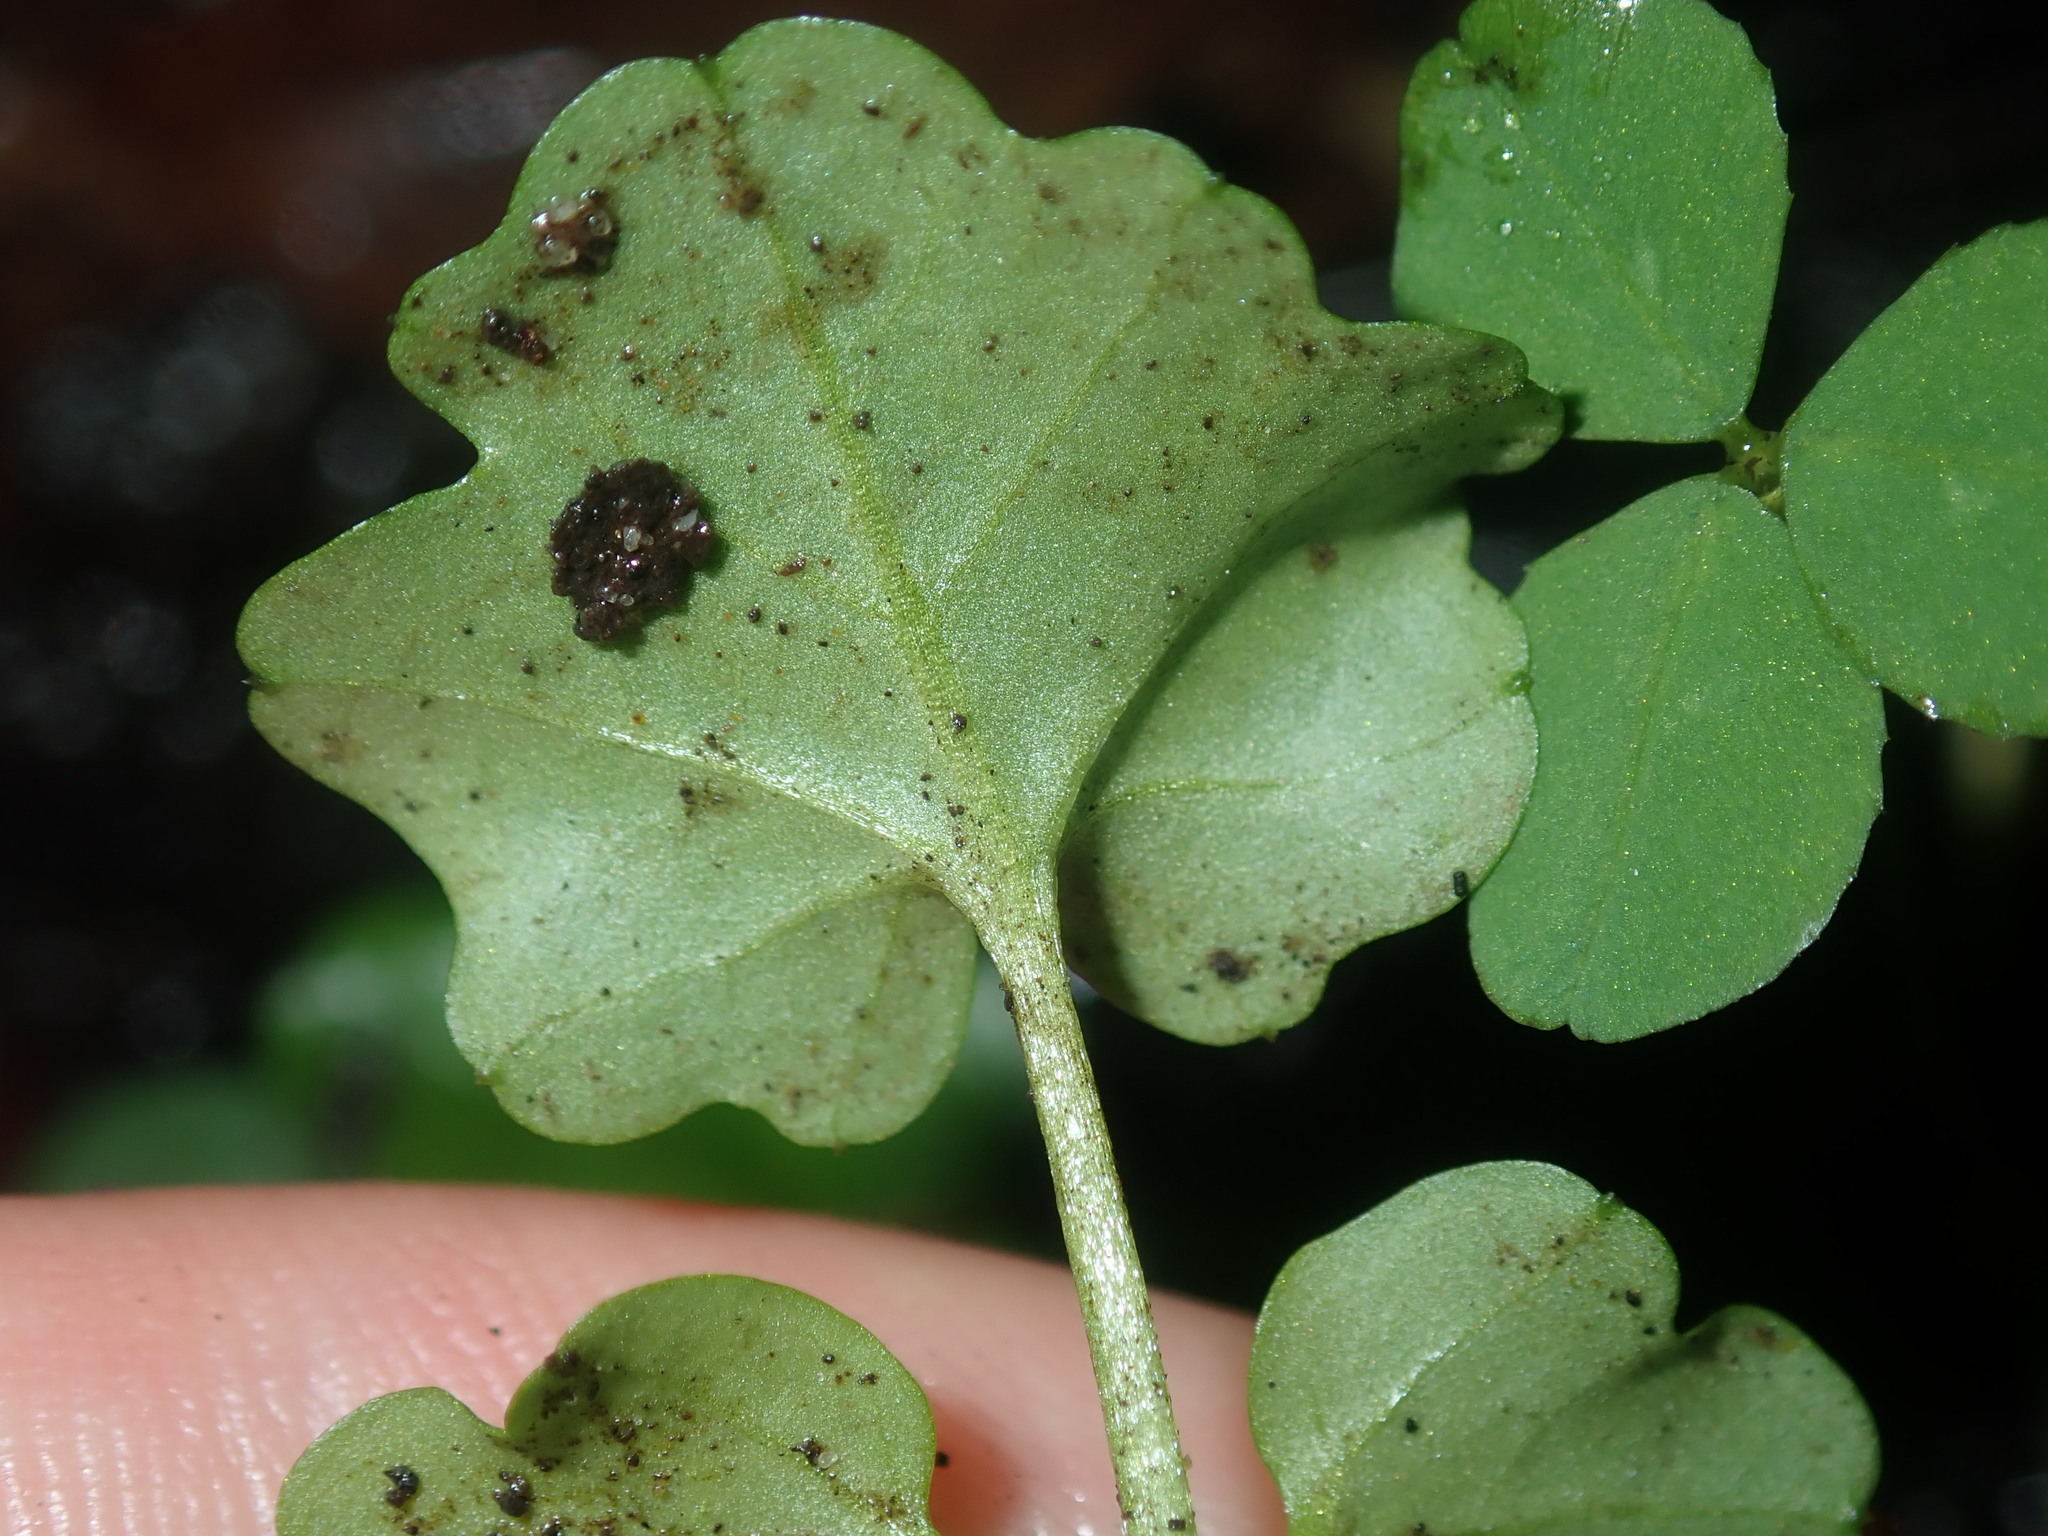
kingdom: Plantae
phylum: Tracheophyta
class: Magnoliopsida
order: Brassicales
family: Brassicaceae
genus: Cardamine
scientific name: Cardamine hirsuta
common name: Hairy bittercress
